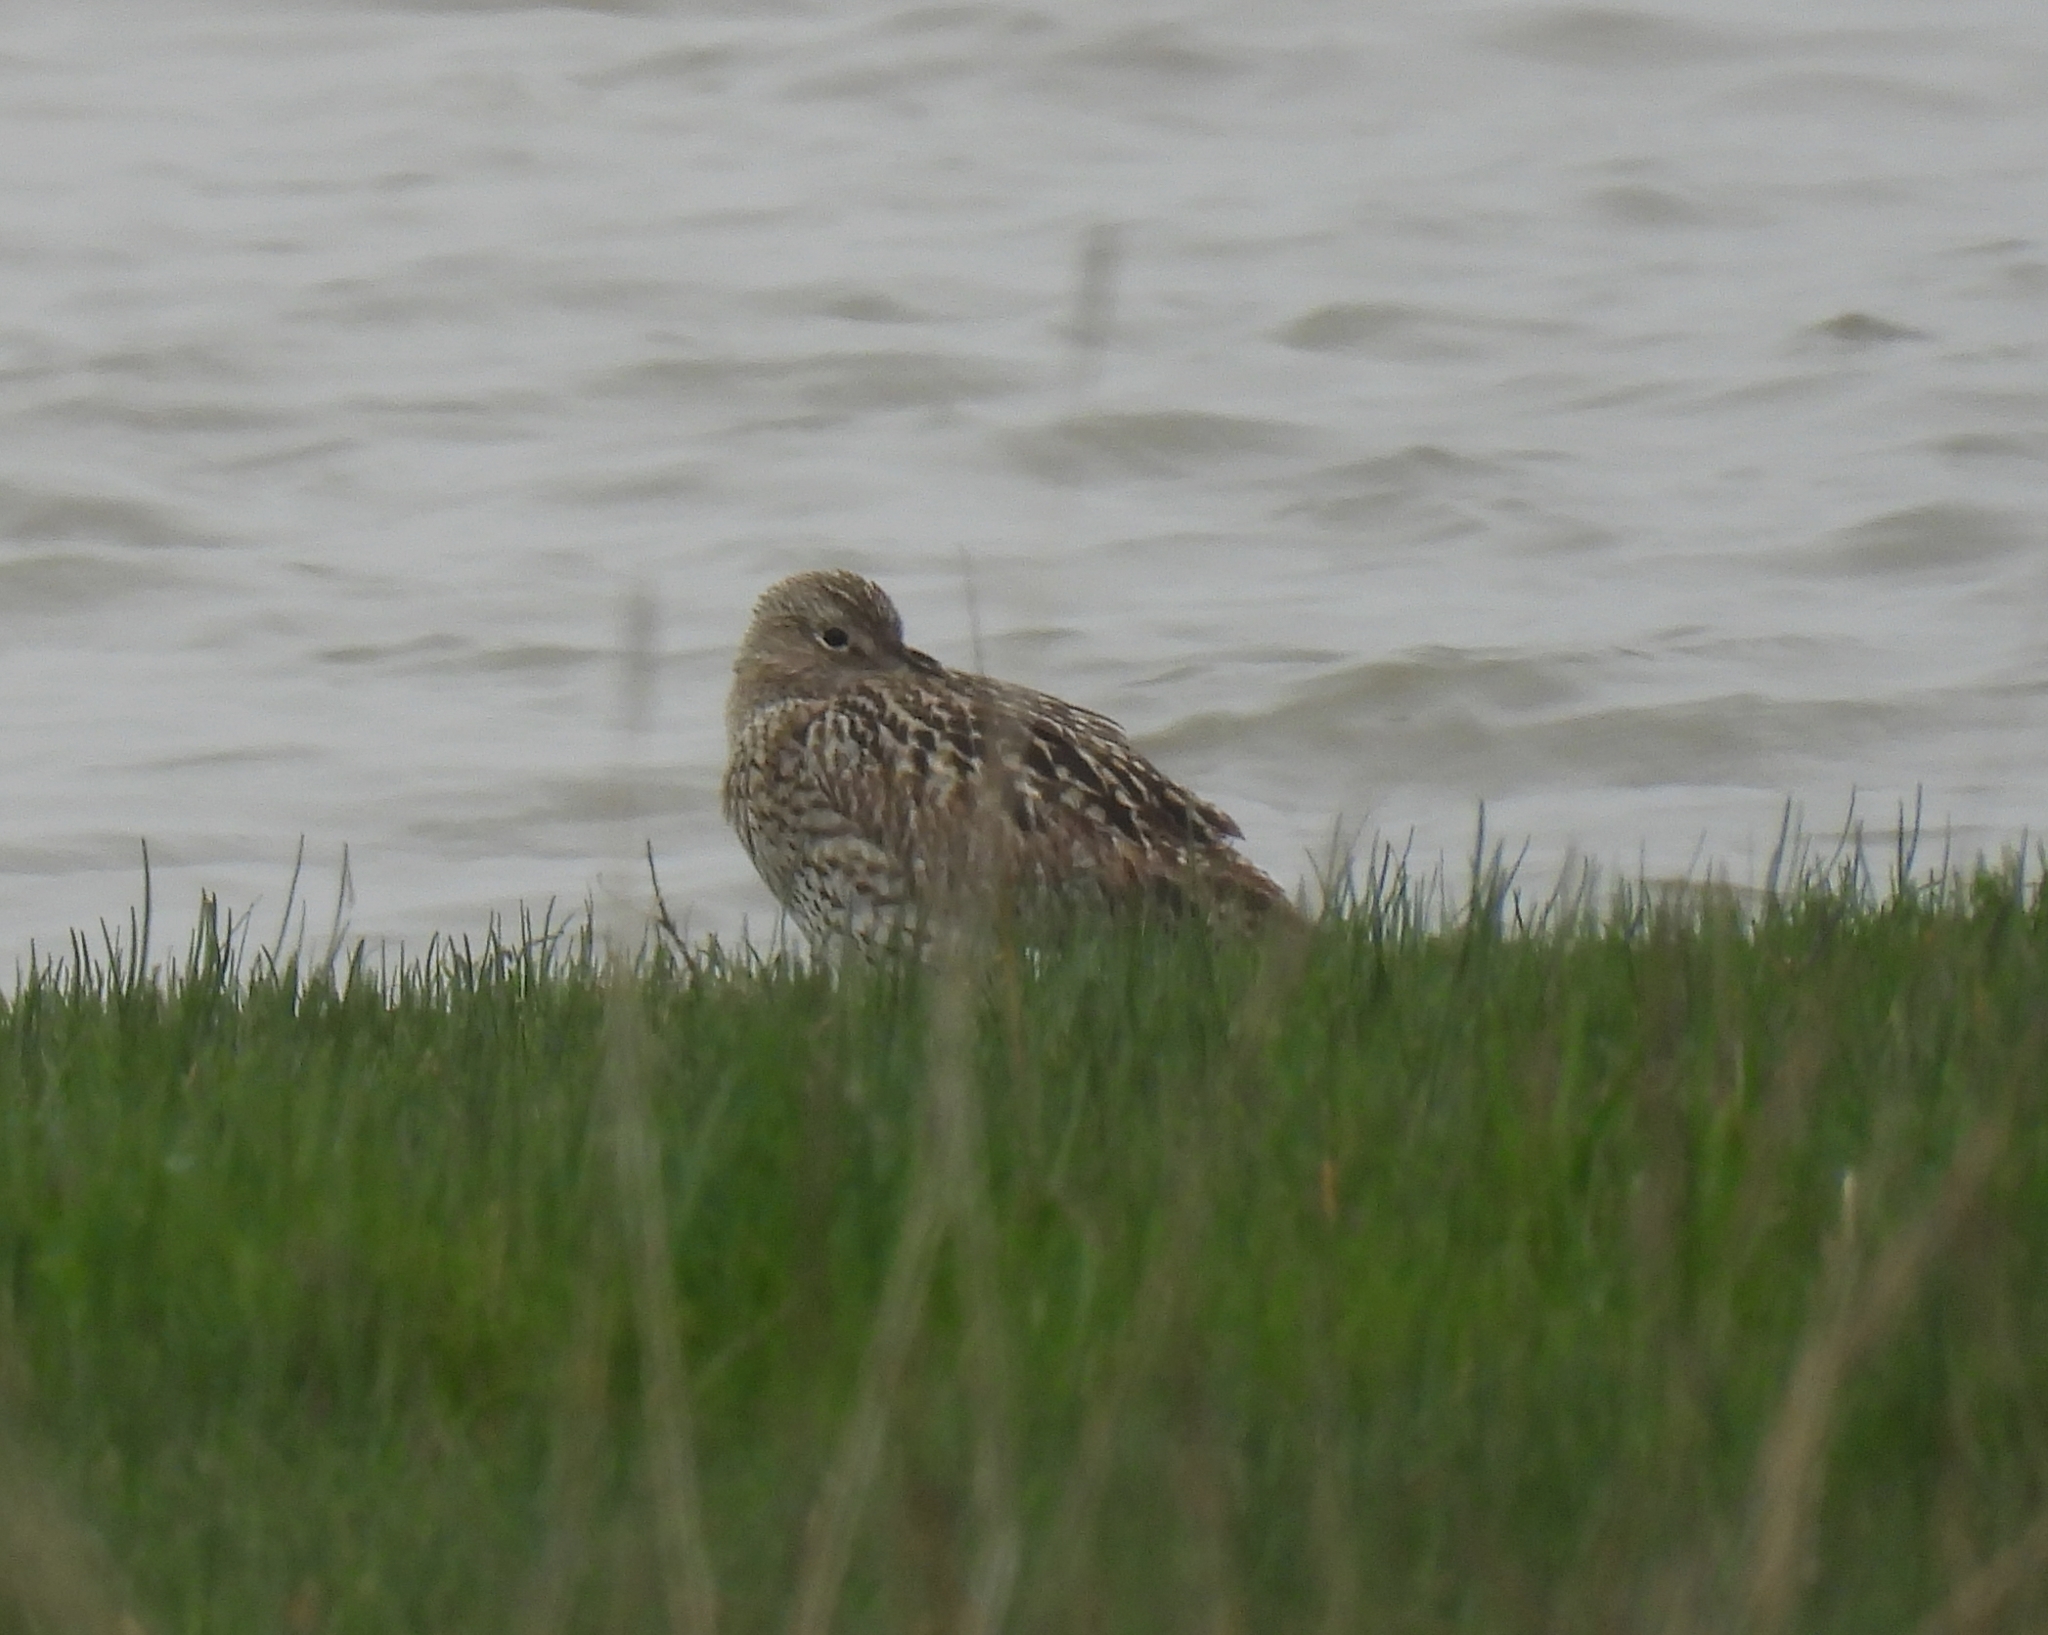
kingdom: Animalia
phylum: Chordata
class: Aves
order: Charadriiformes
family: Scolopacidae
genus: Numenius
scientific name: Numenius arquata
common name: Eurasian curlew
